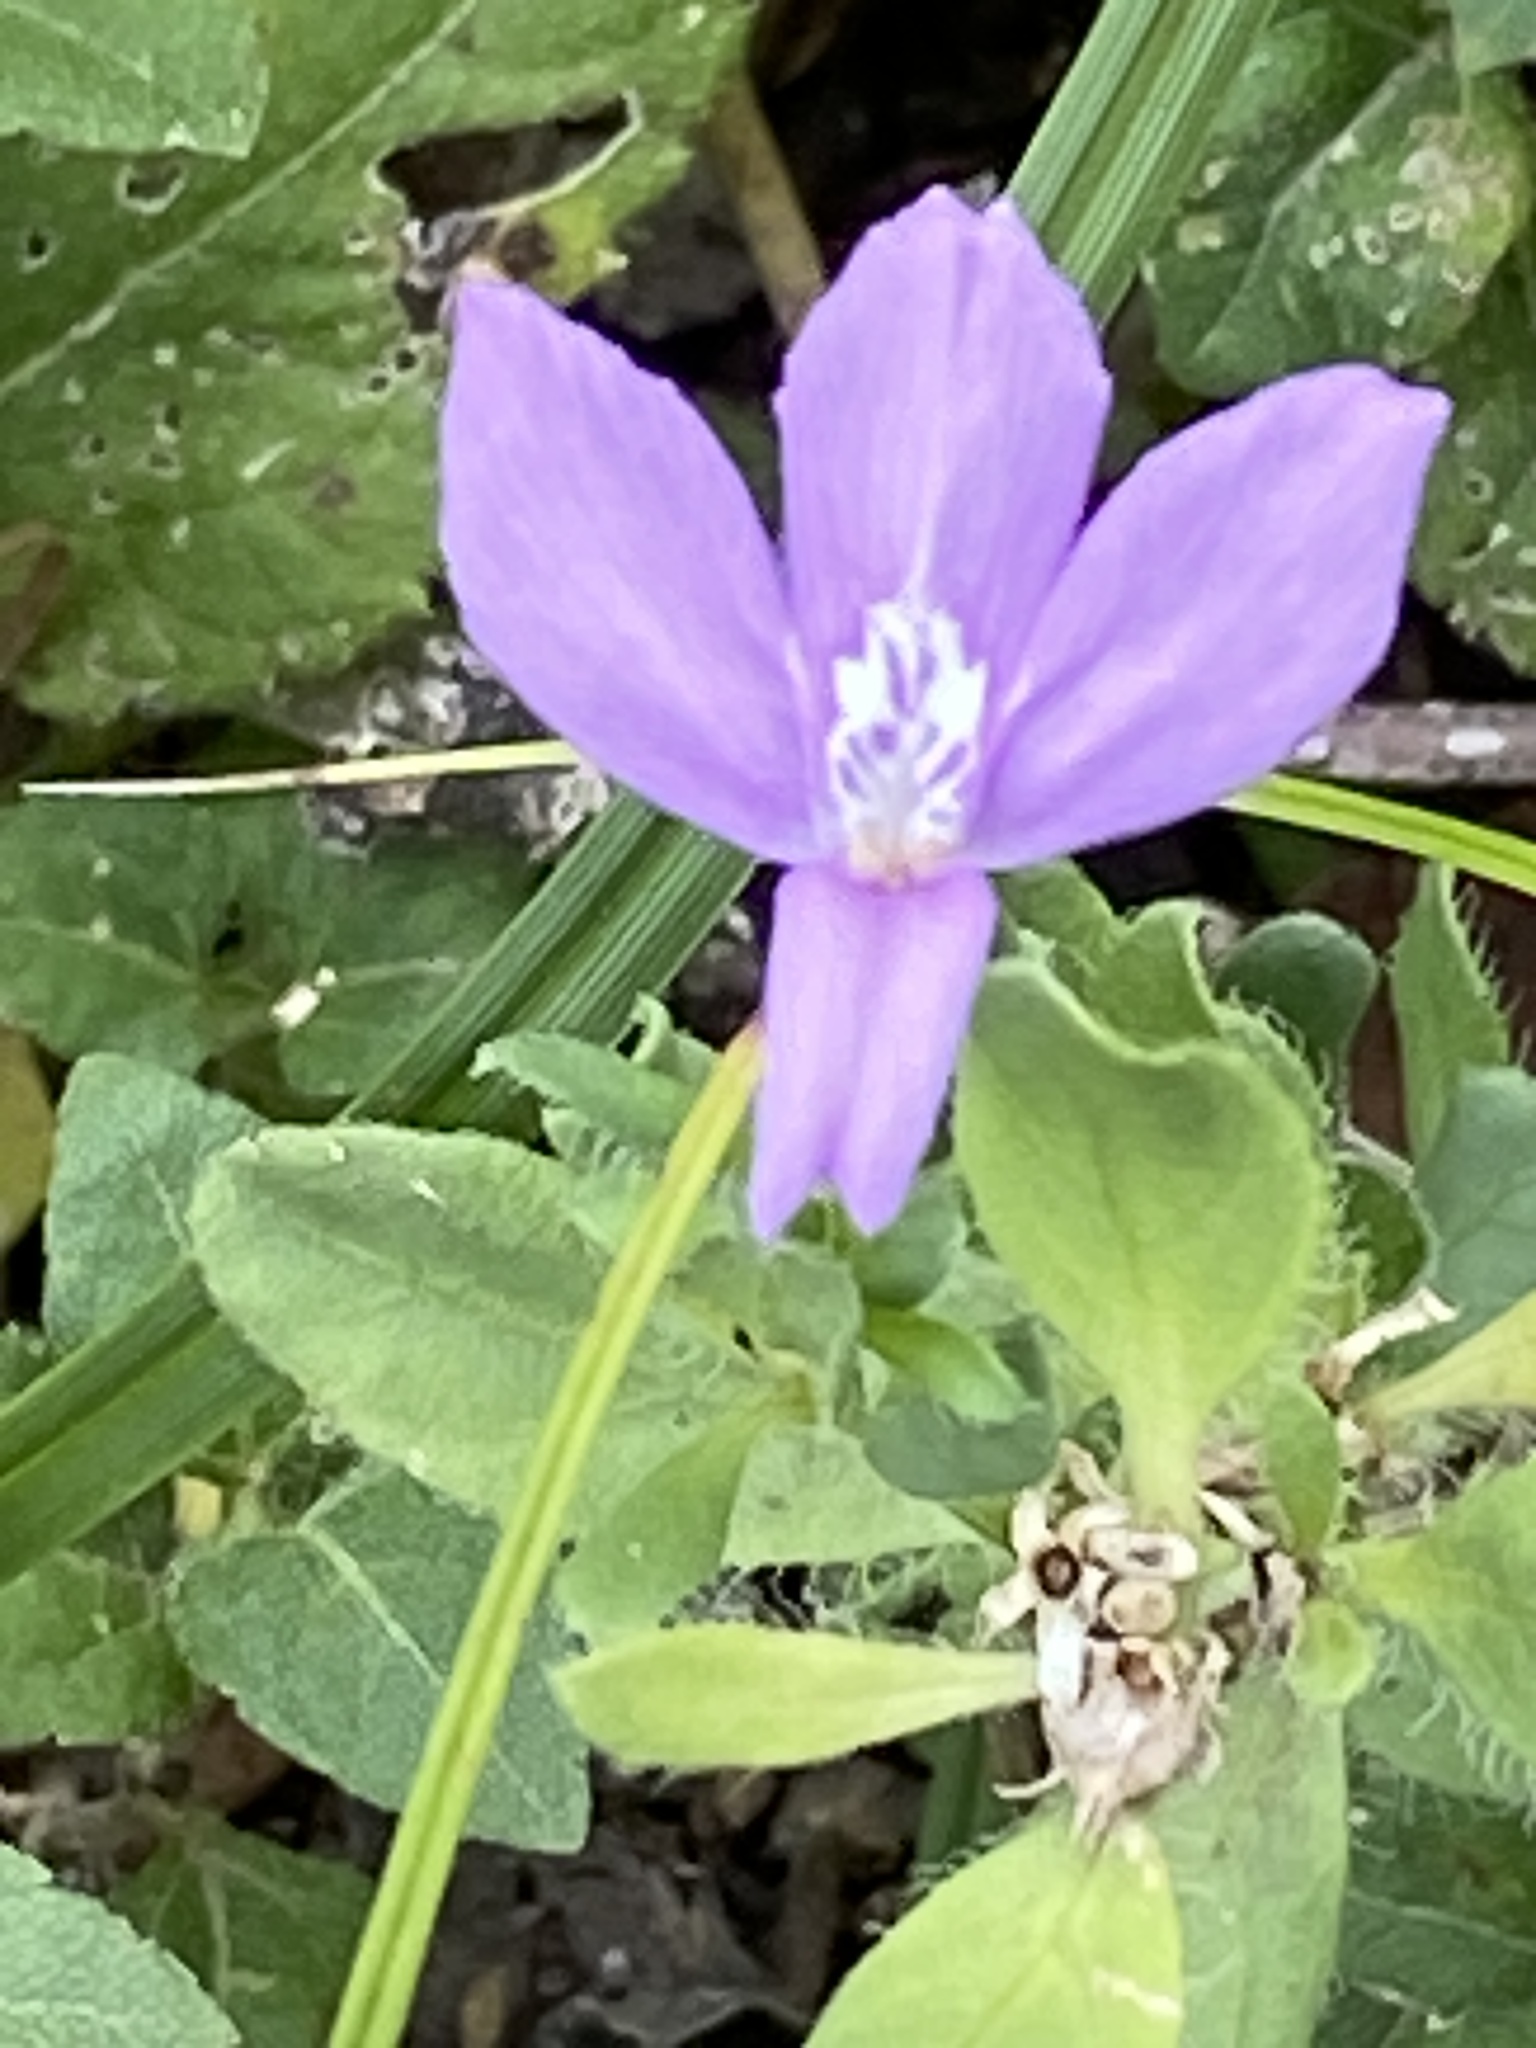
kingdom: Plantae
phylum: Tracheophyta
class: Magnoliopsida
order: Lamiales
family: Acanthaceae
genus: Justicia
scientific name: Justicia pilosella
